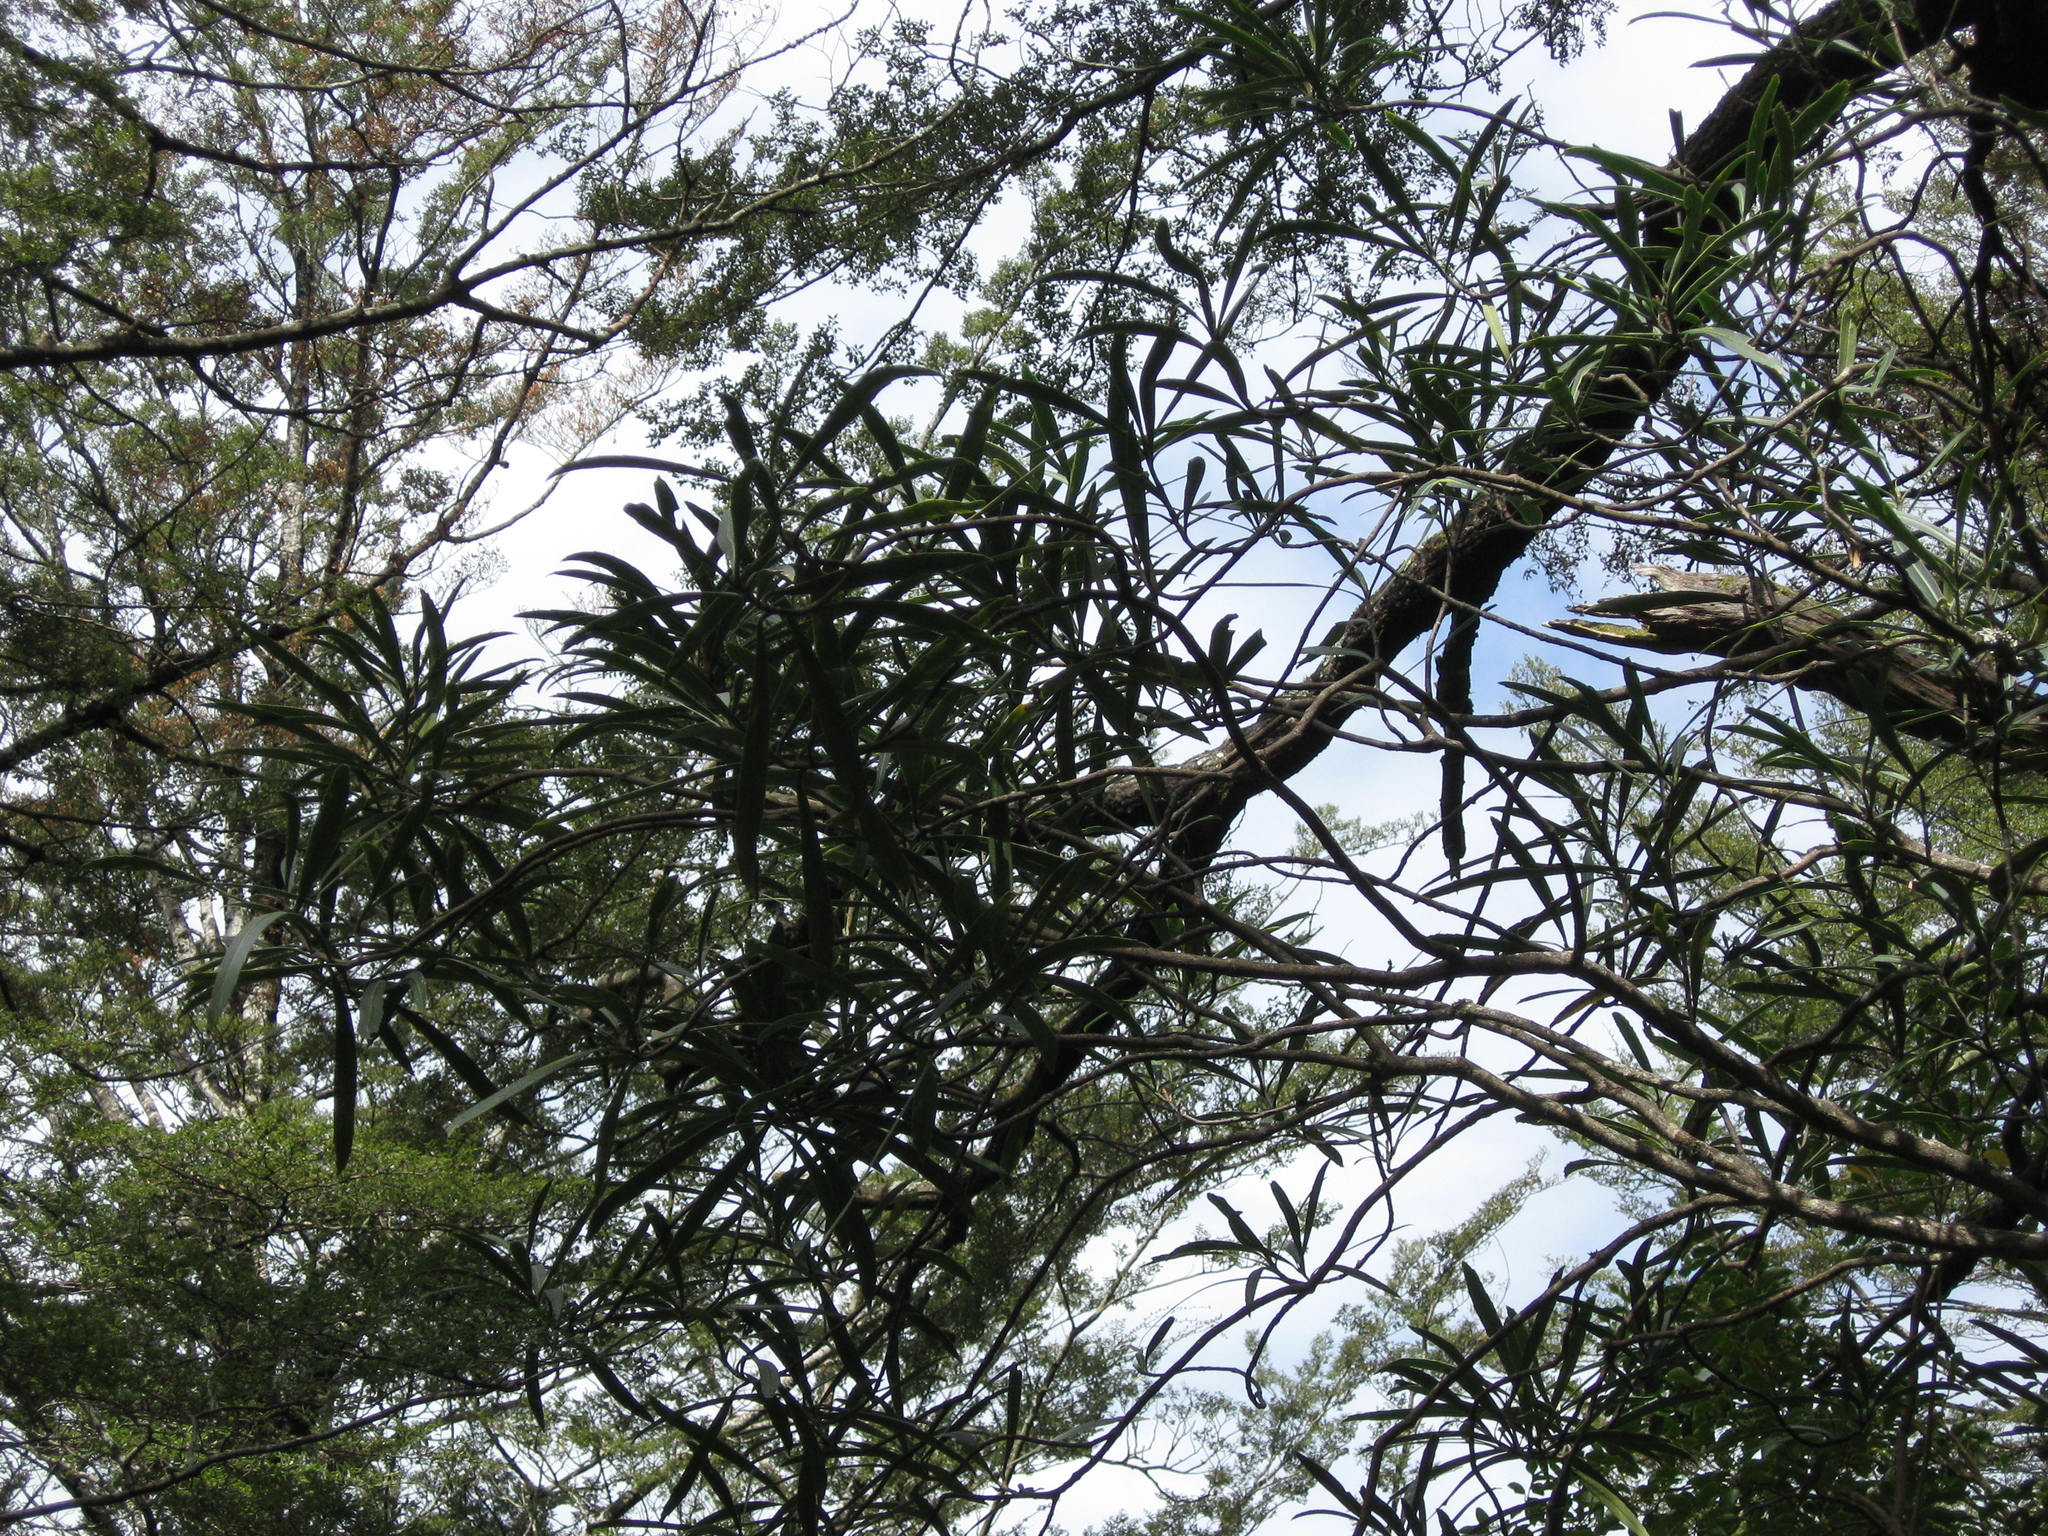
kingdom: Plantae
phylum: Tracheophyta
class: Magnoliopsida
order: Apiales
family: Araliaceae
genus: Pseudopanax
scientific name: Pseudopanax crassifolius
